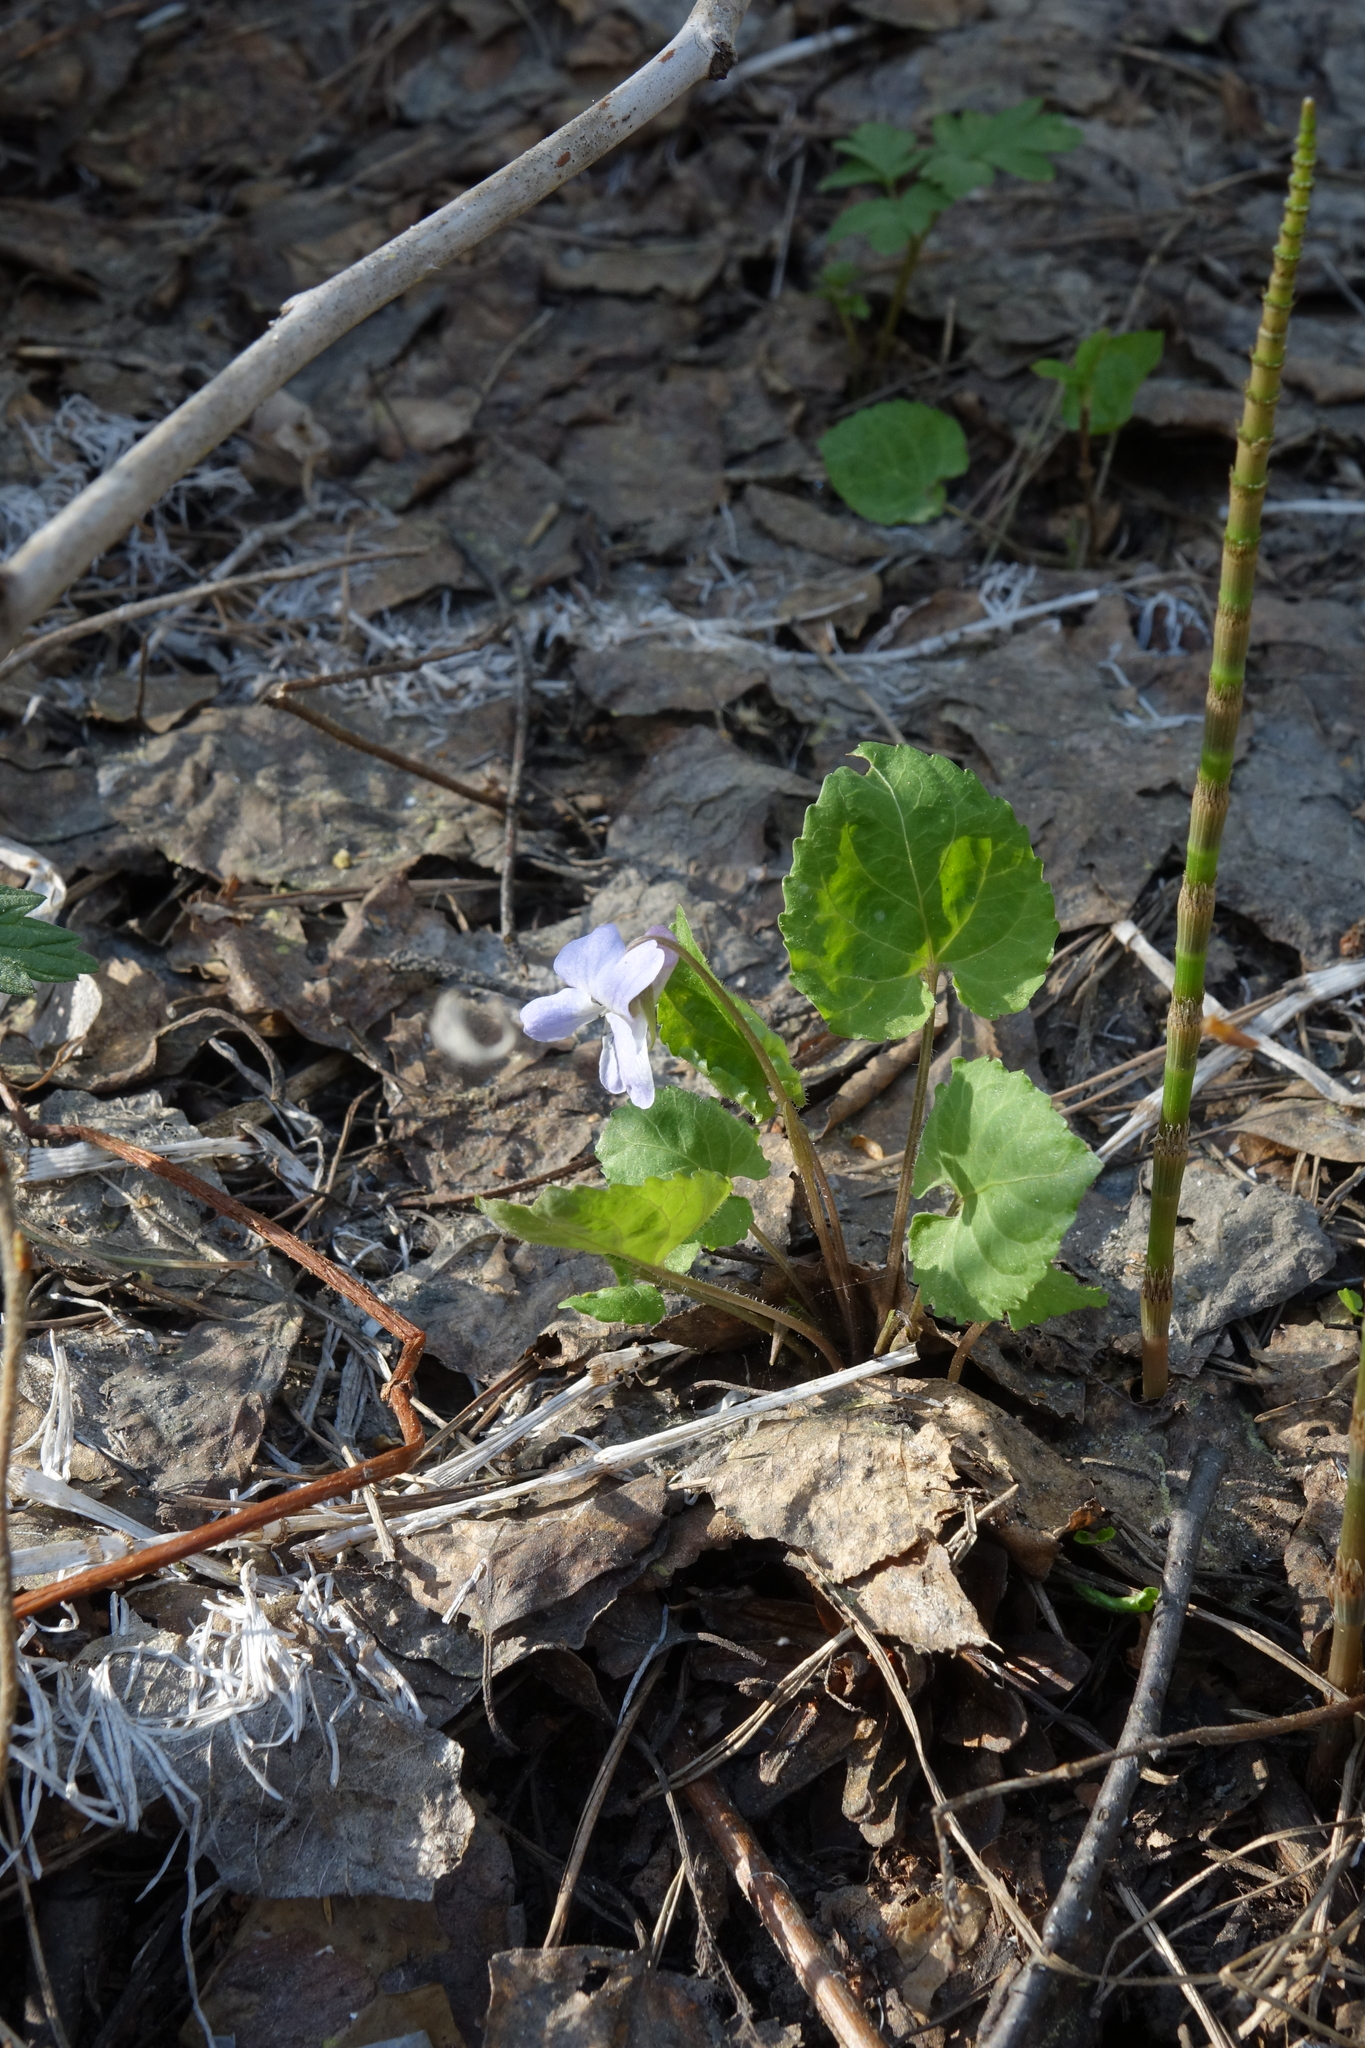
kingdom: Plantae
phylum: Tracheophyta
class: Magnoliopsida
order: Malpighiales
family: Violaceae
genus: Viola
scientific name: Viola selkirkii
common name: Selkirk's violet
